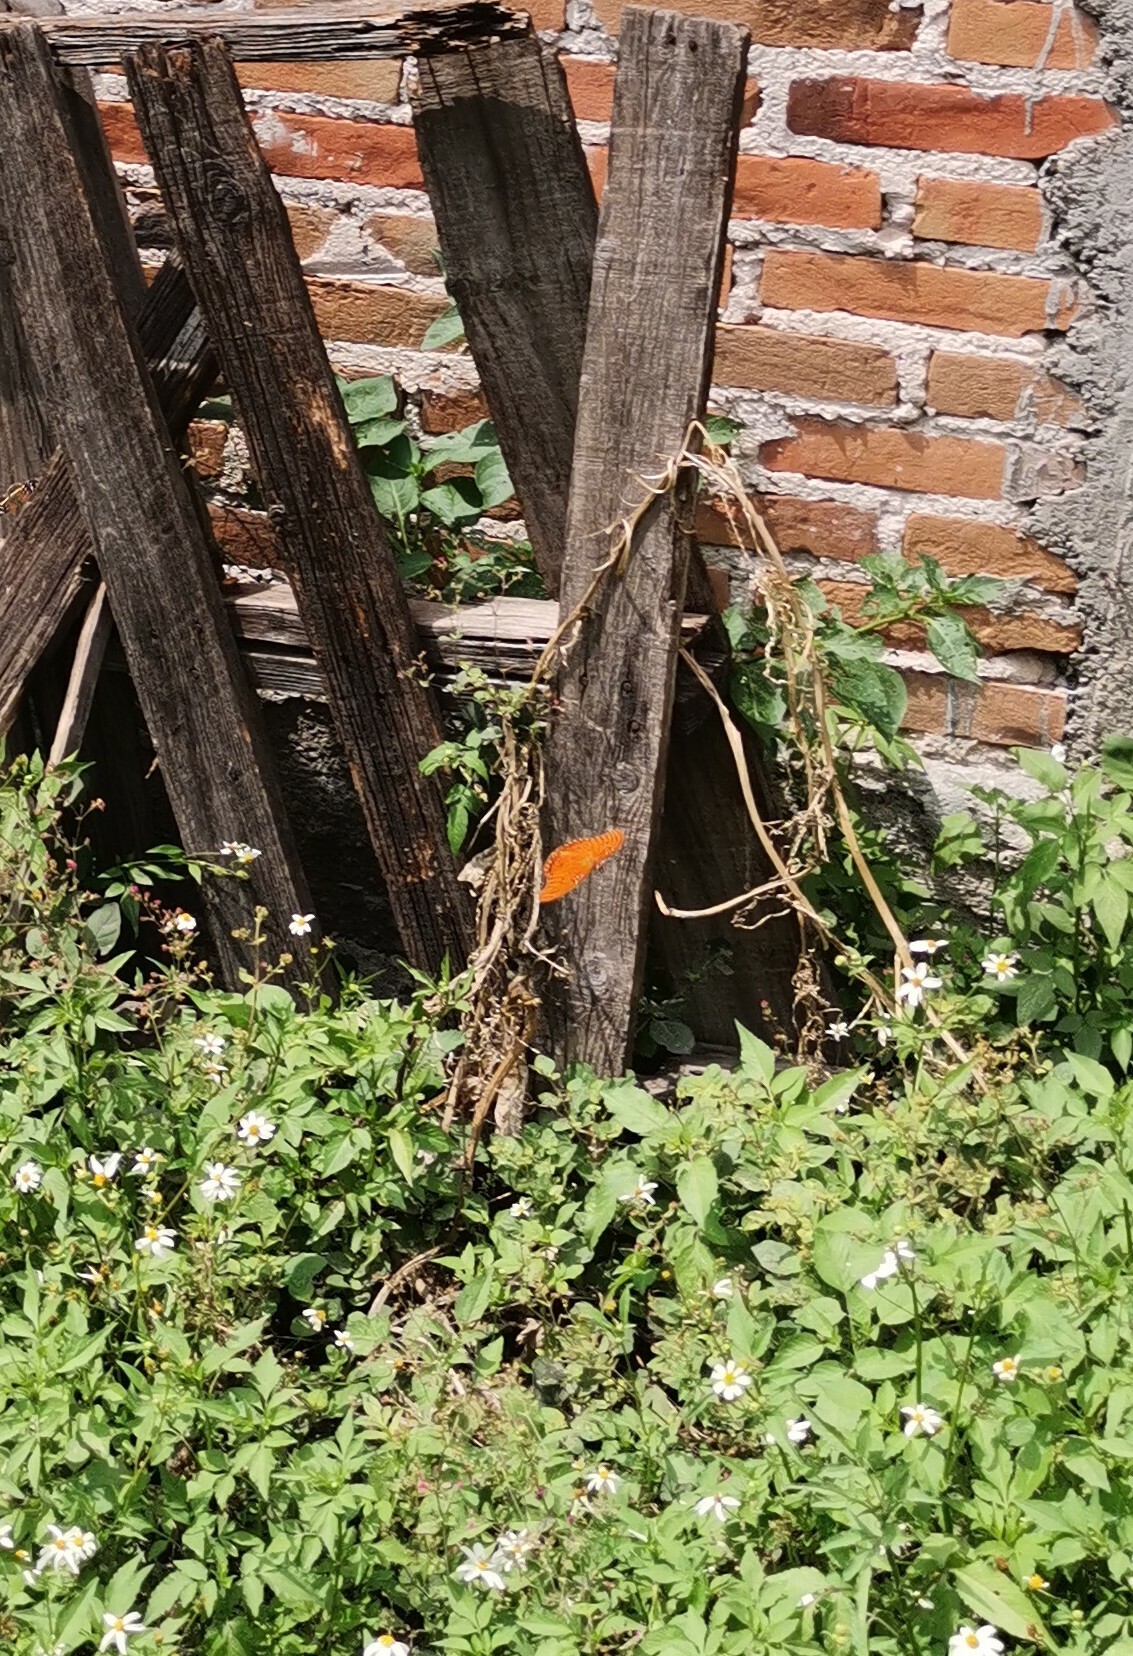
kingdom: Animalia
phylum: Arthropoda
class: Insecta
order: Lepidoptera
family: Nymphalidae
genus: Dione
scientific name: Dione vanillae
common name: Gulf fritillary
